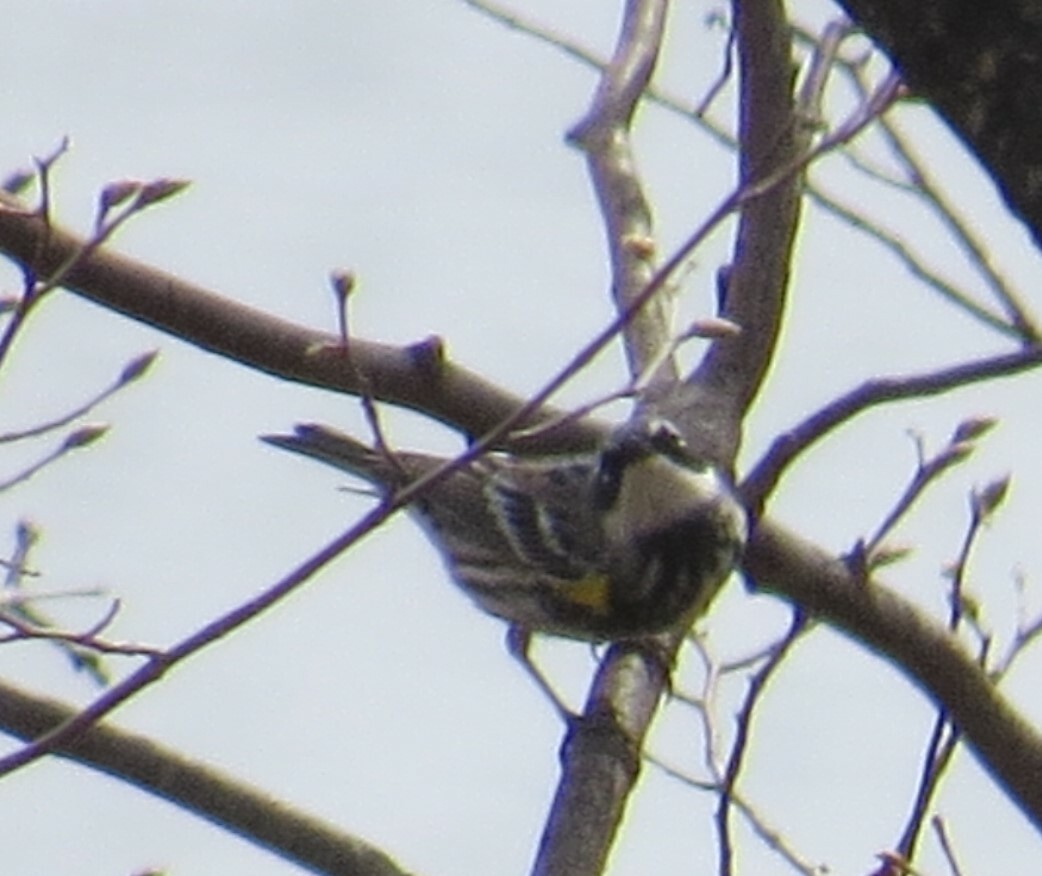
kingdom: Animalia
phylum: Chordata
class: Aves
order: Passeriformes
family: Parulidae
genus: Setophaga
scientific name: Setophaga coronata
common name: Myrtle warbler
